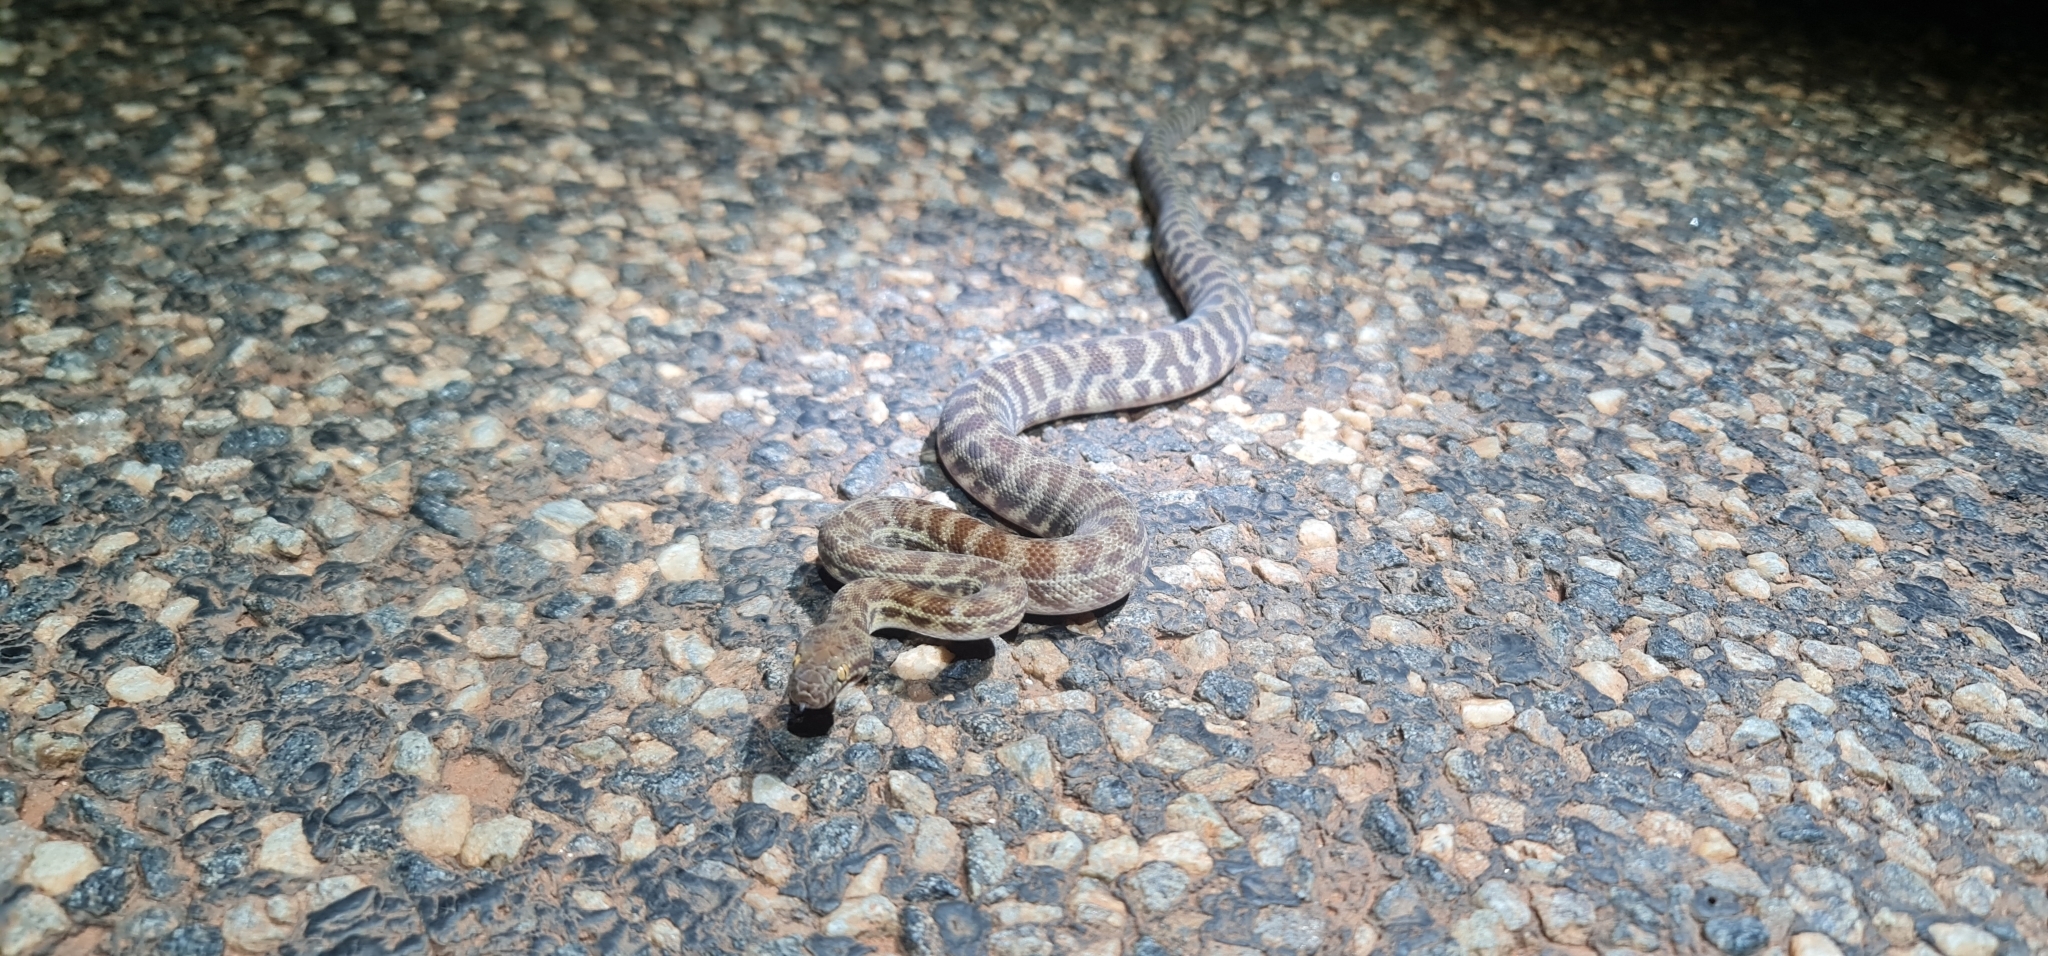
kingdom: Animalia
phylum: Chordata
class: Squamata
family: Pythonidae
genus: Antaresia
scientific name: Antaresia childreni
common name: Children's python
